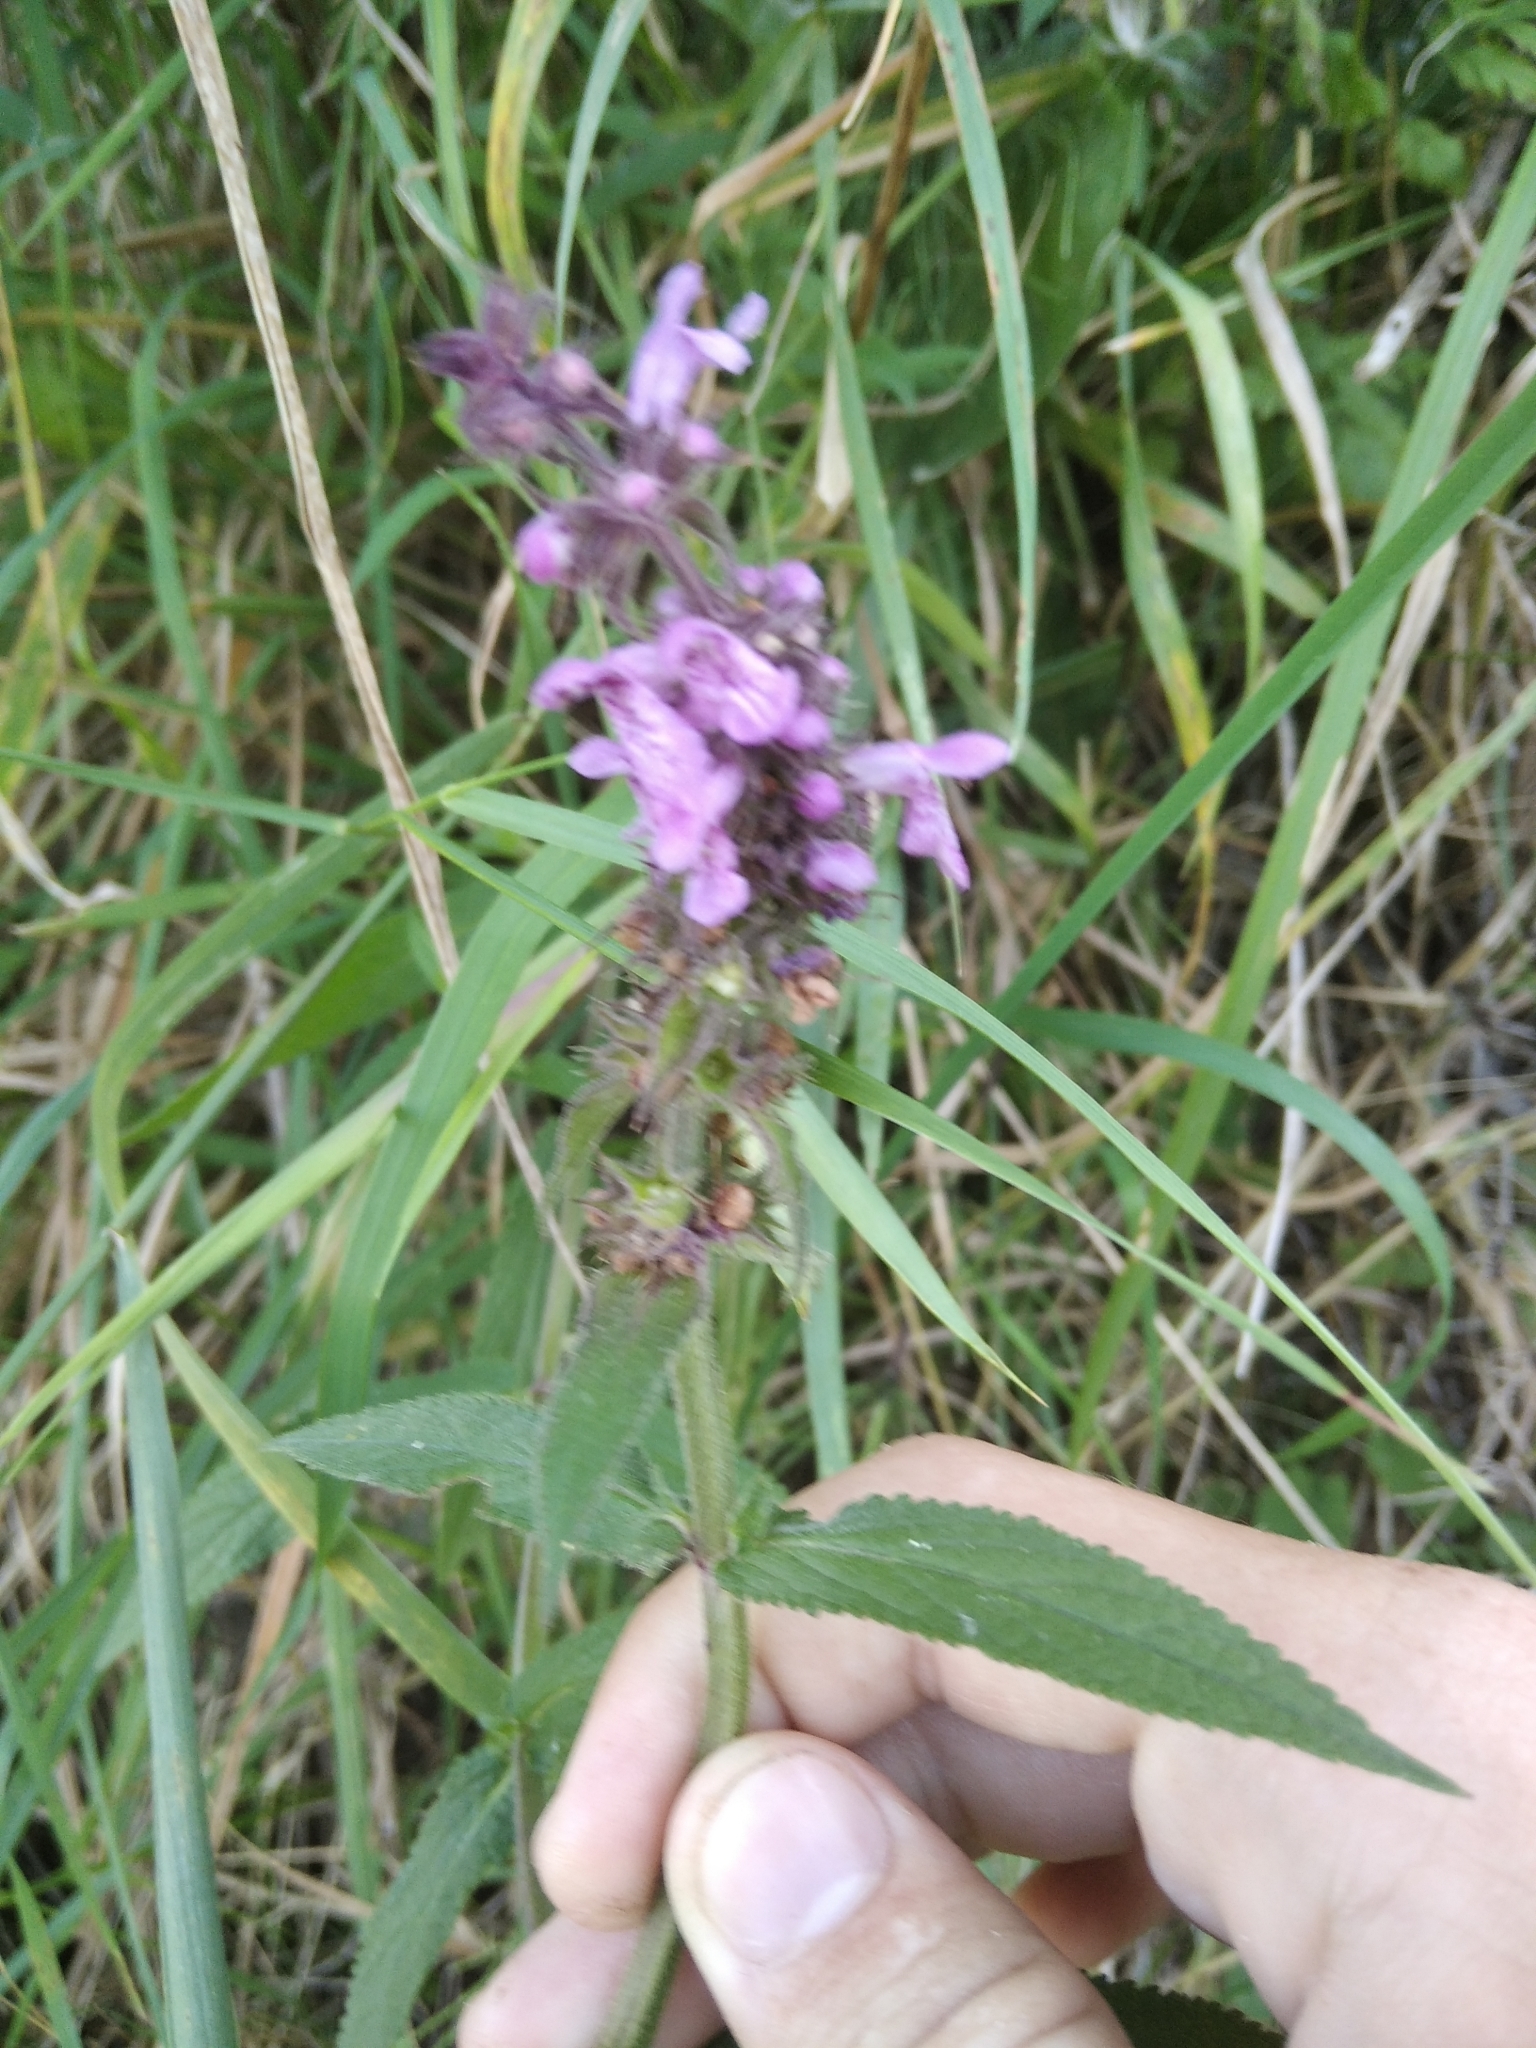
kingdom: Plantae
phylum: Tracheophyta
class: Magnoliopsida
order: Lamiales
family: Lamiaceae
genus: Stachys
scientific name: Stachys palustris
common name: Marsh woundwort
